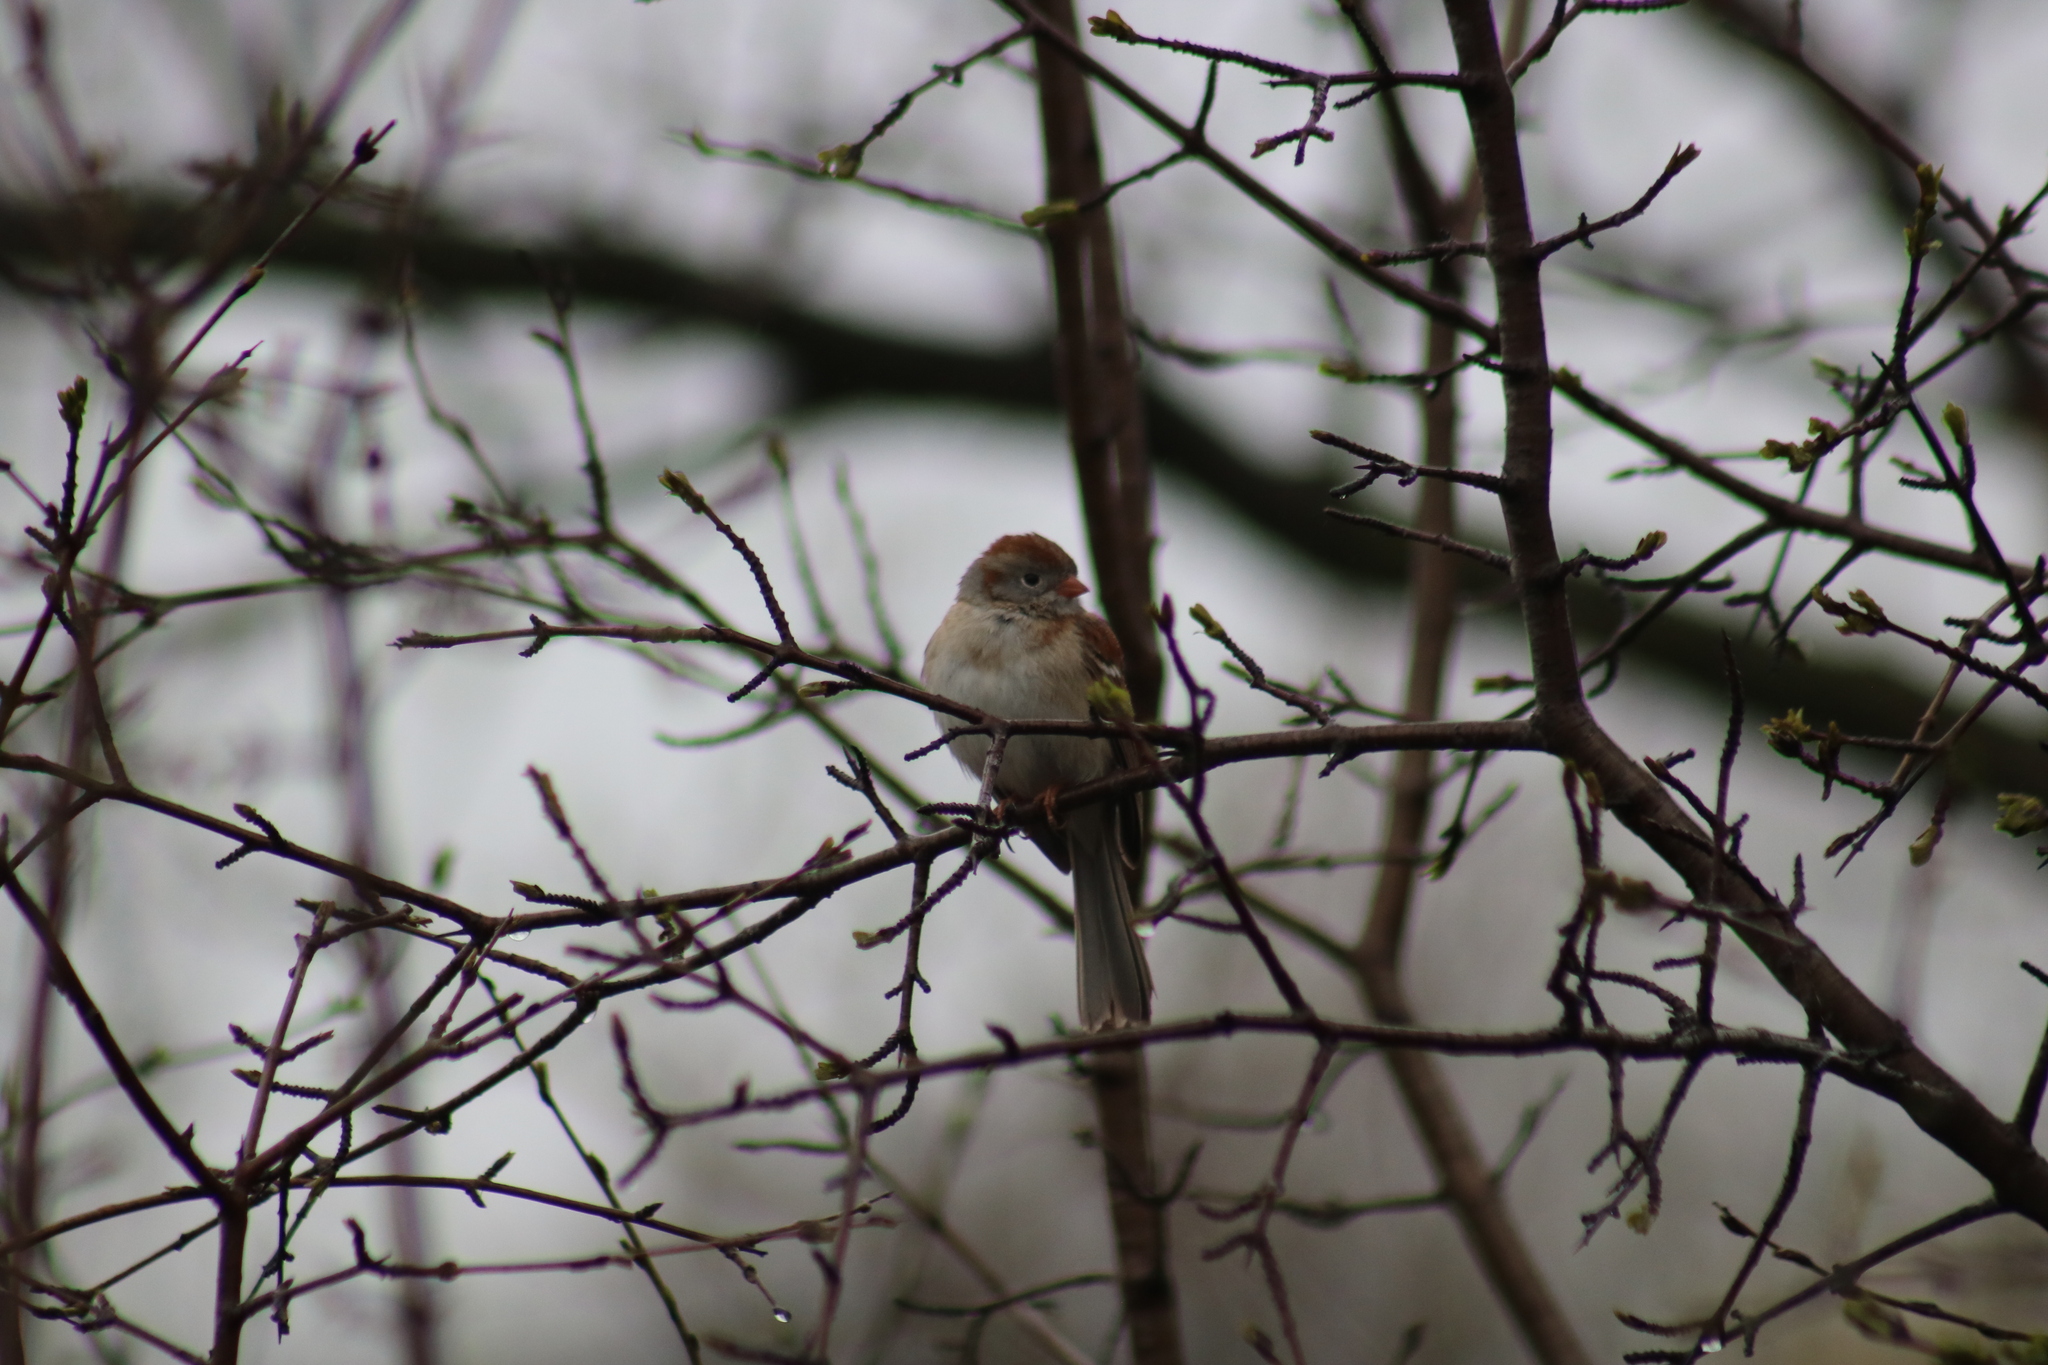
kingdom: Animalia
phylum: Chordata
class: Aves
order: Passeriformes
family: Passerellidae
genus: Spizella
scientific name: Spizella pusilla
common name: Field sparrow
